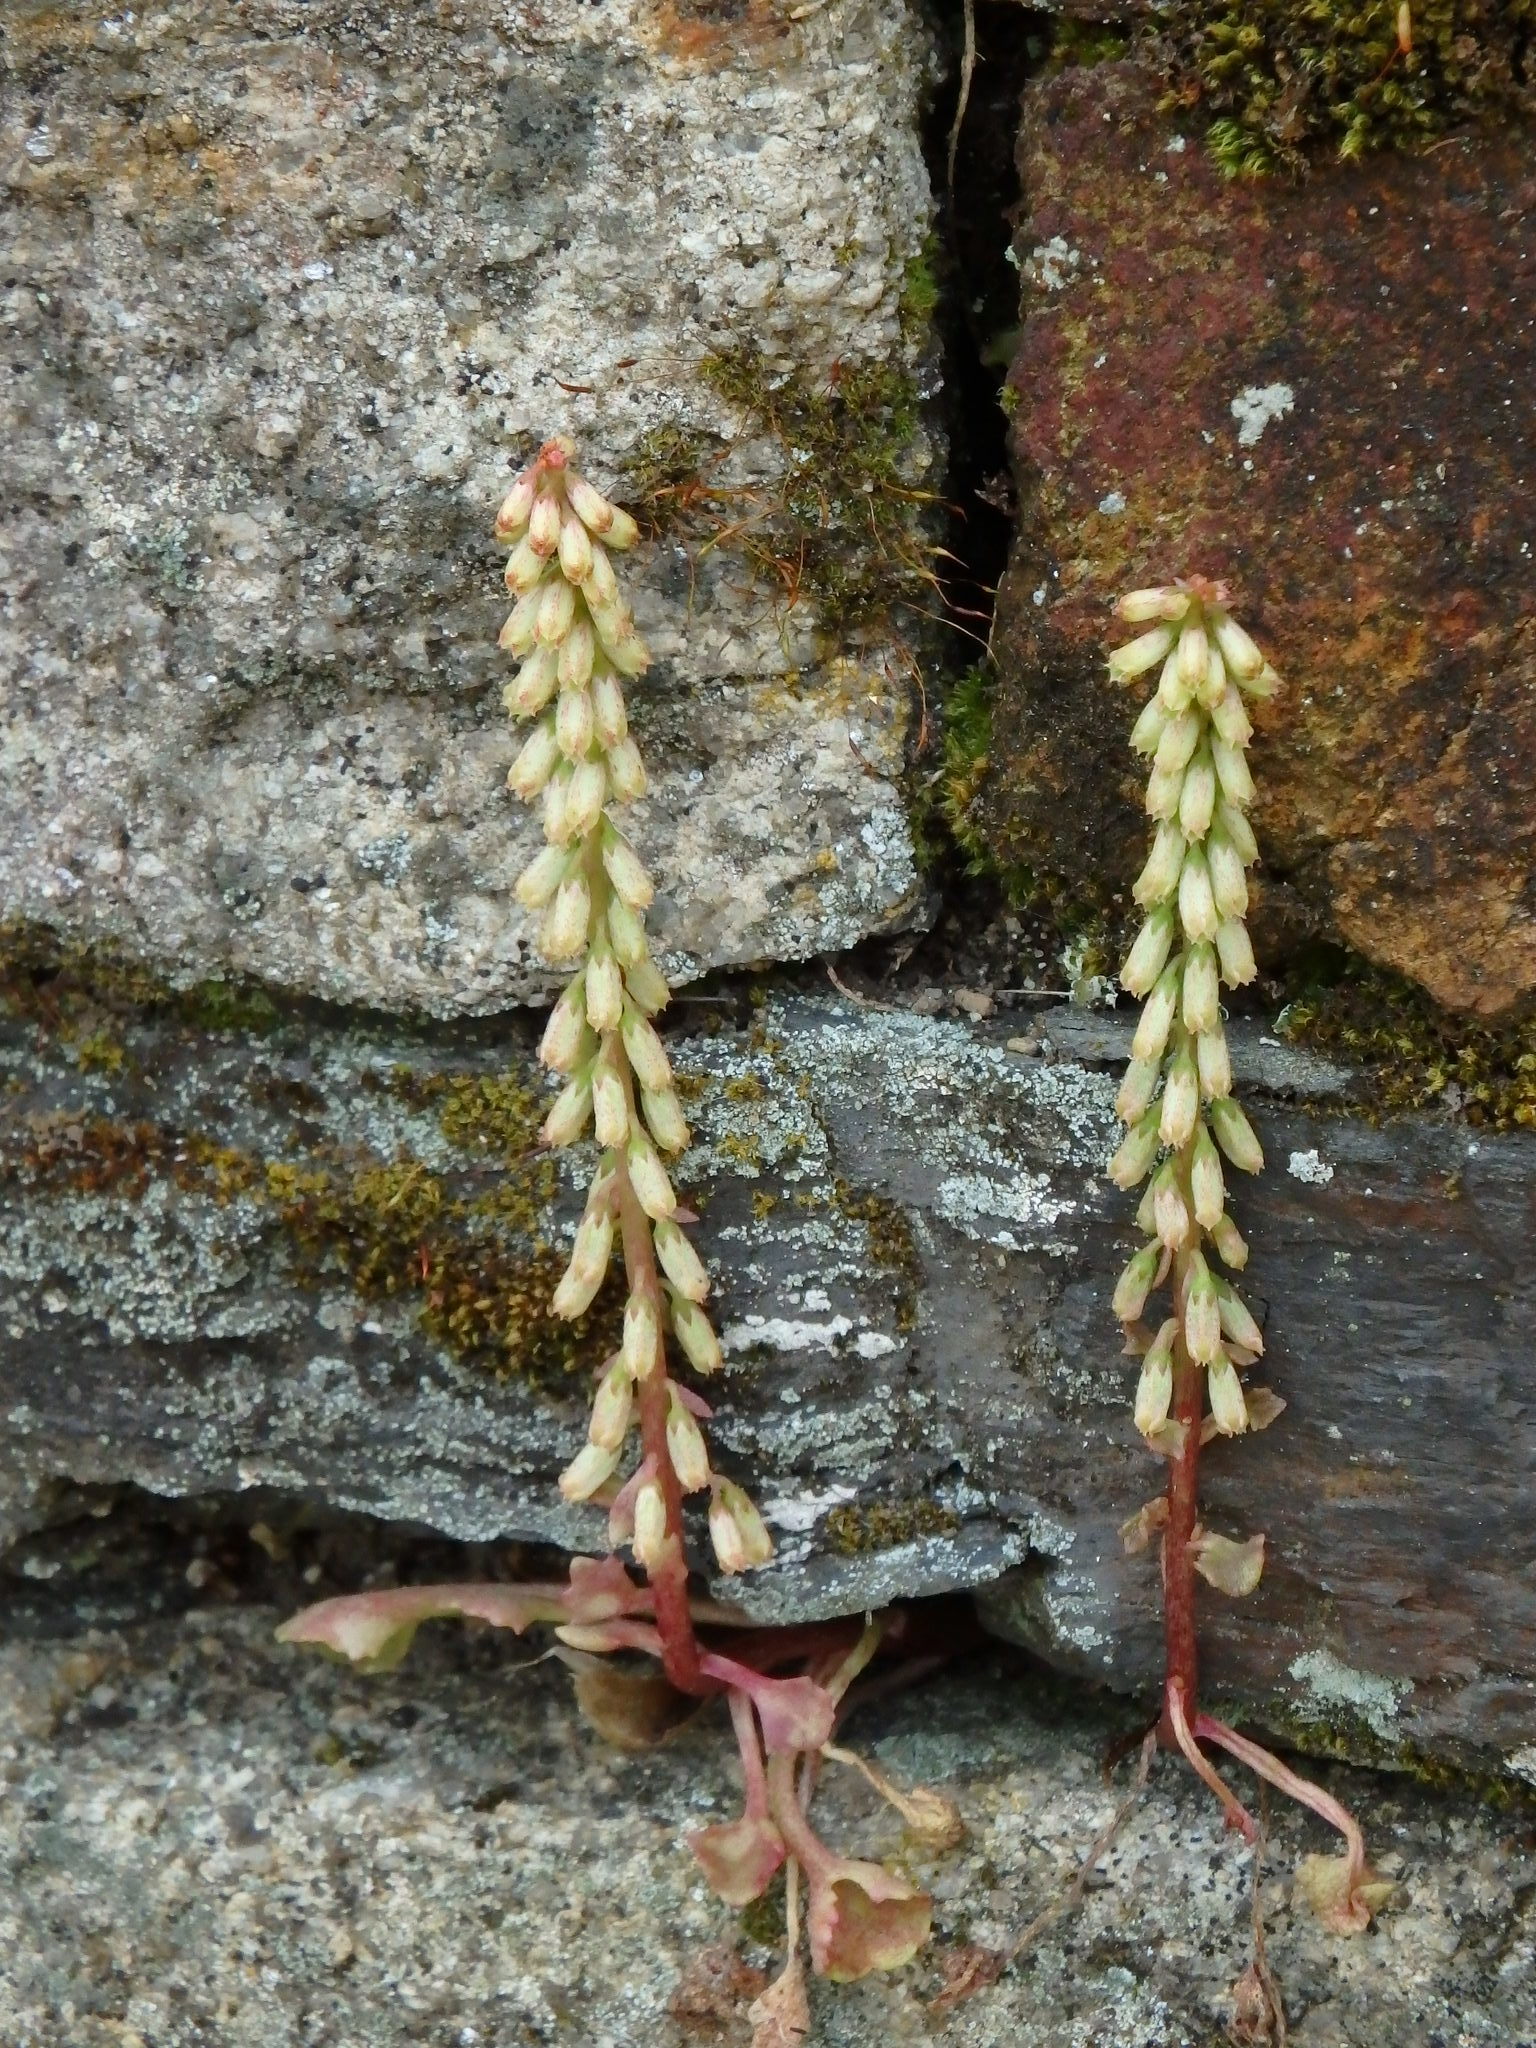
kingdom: Plantae
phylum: Tracheophyta
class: Magnoliopsida
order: Saxifragales
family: Crassulaceae
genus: Umbilicus
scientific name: Umbilicus rupestris
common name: Navelwort
